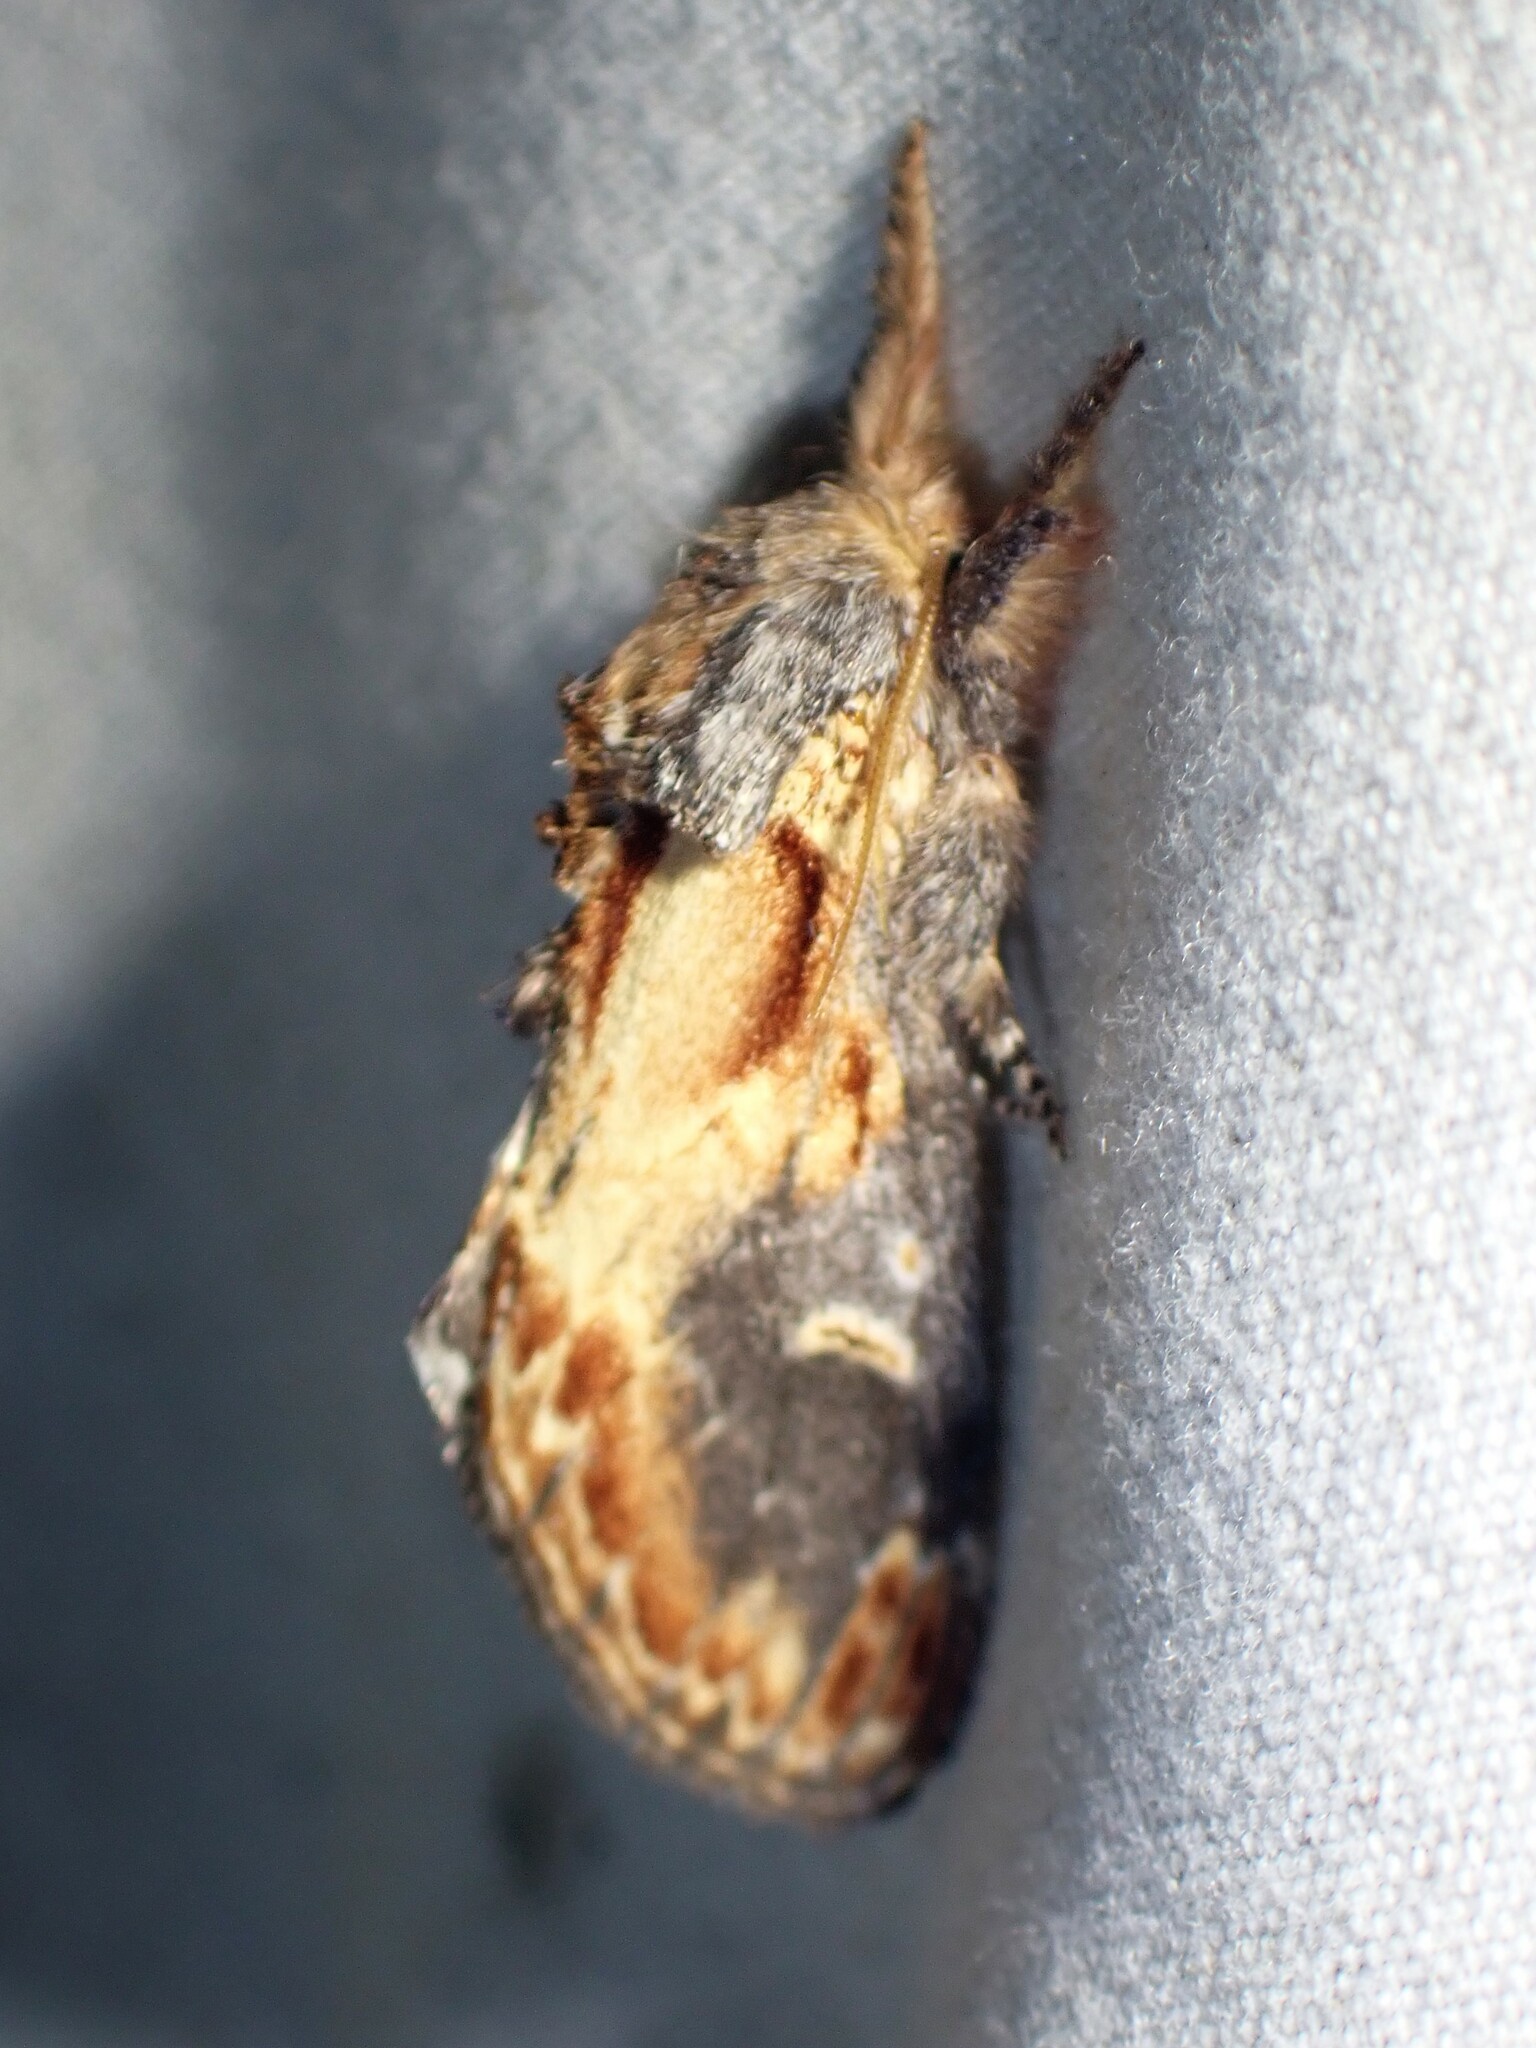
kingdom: Animalia
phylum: Arthropoda
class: Insecta
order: Lepidoptera
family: Notodontidae
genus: Notodonta
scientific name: Notodonta scitipennis
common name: Finned-willow prominent moth
